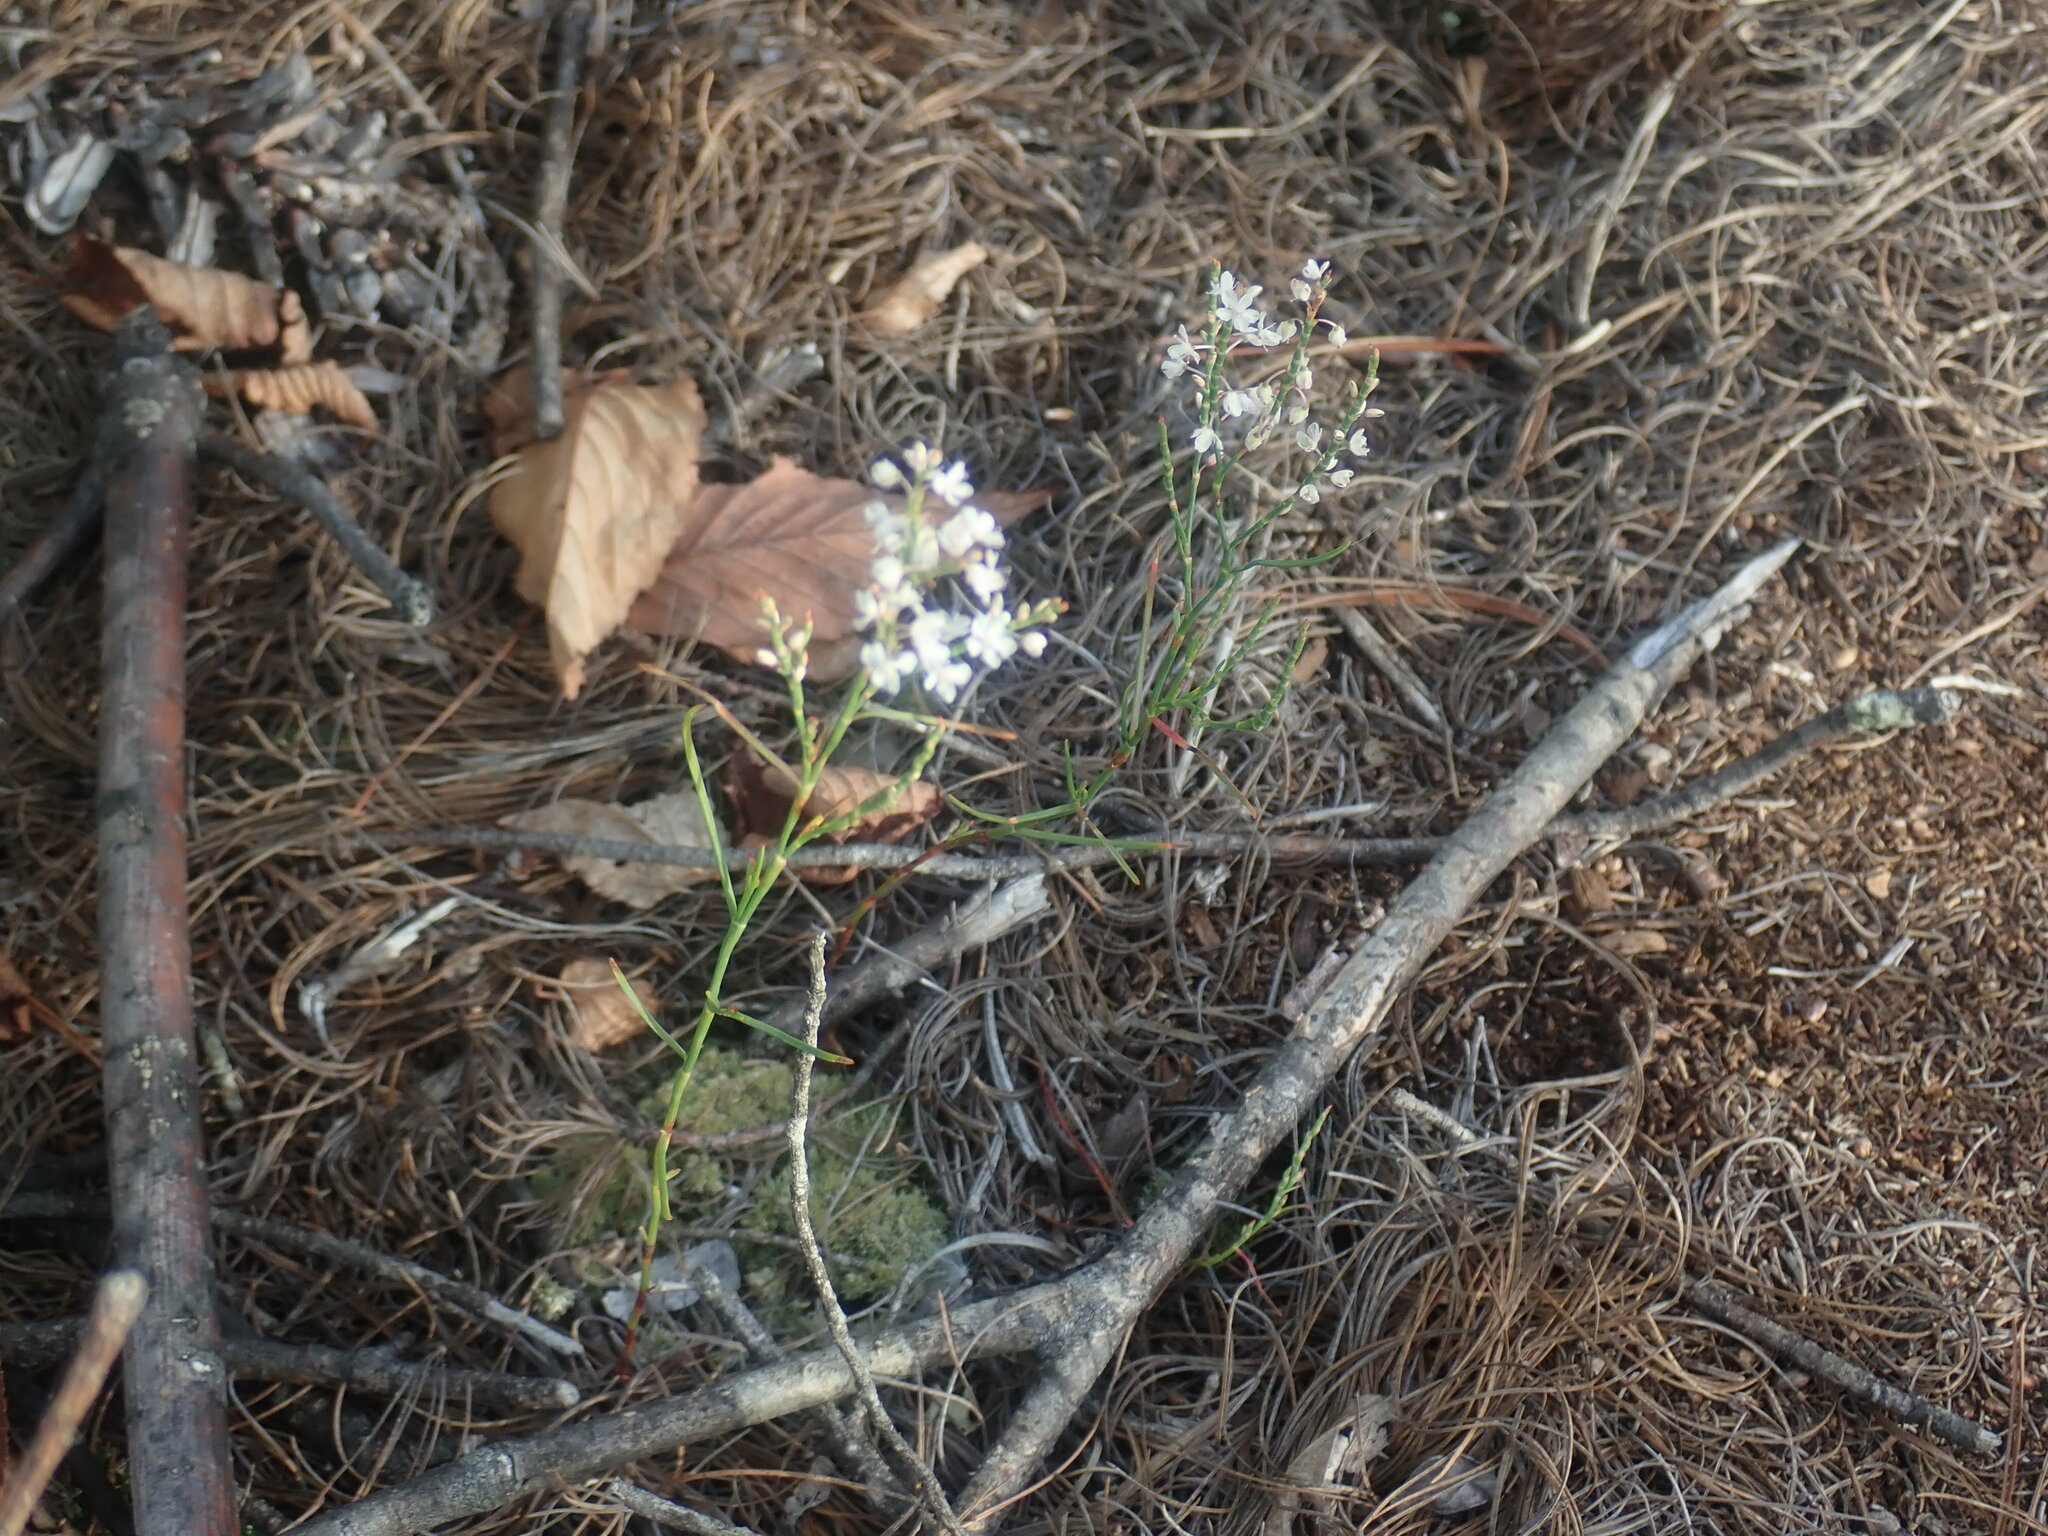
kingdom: Plantae
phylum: Tracheophyta
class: Magnoliopsida
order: Caryophyllales
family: Polygonaceae
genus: Polygonella
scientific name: Polygonella articulata
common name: Coastal jointweed
